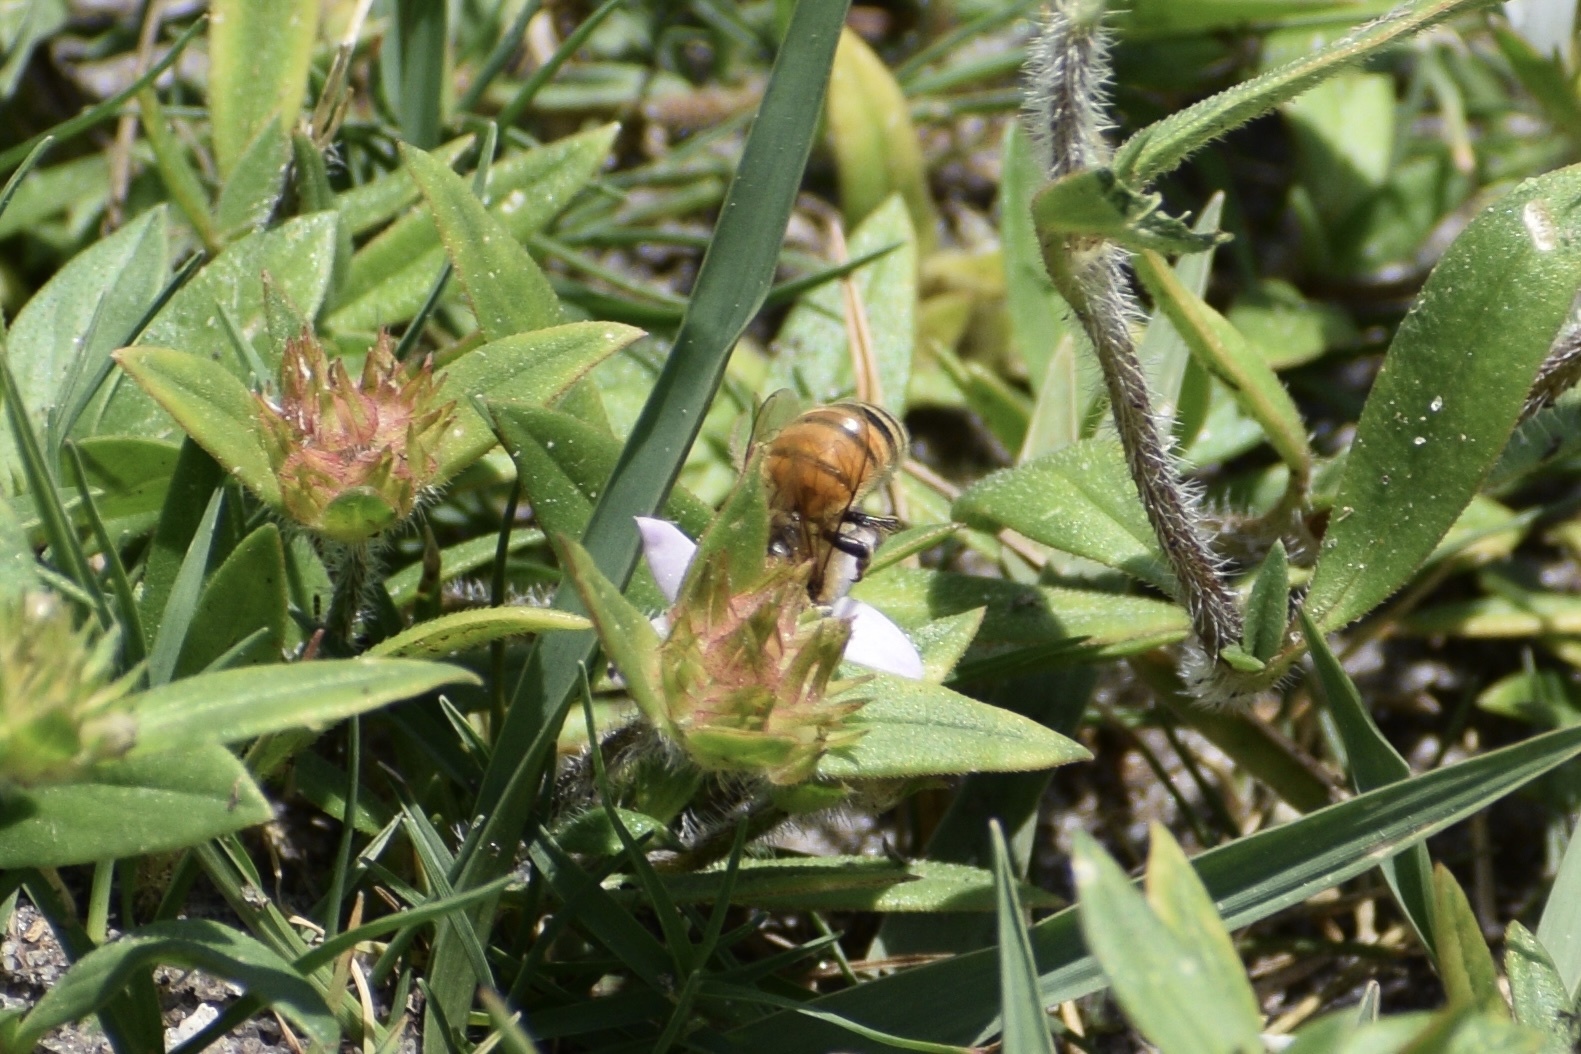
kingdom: Animalia
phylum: Arthropoda
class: Insecta
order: Hymenoptera
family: Apidae
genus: Apis
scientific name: Apis mellifera
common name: Honey bee
